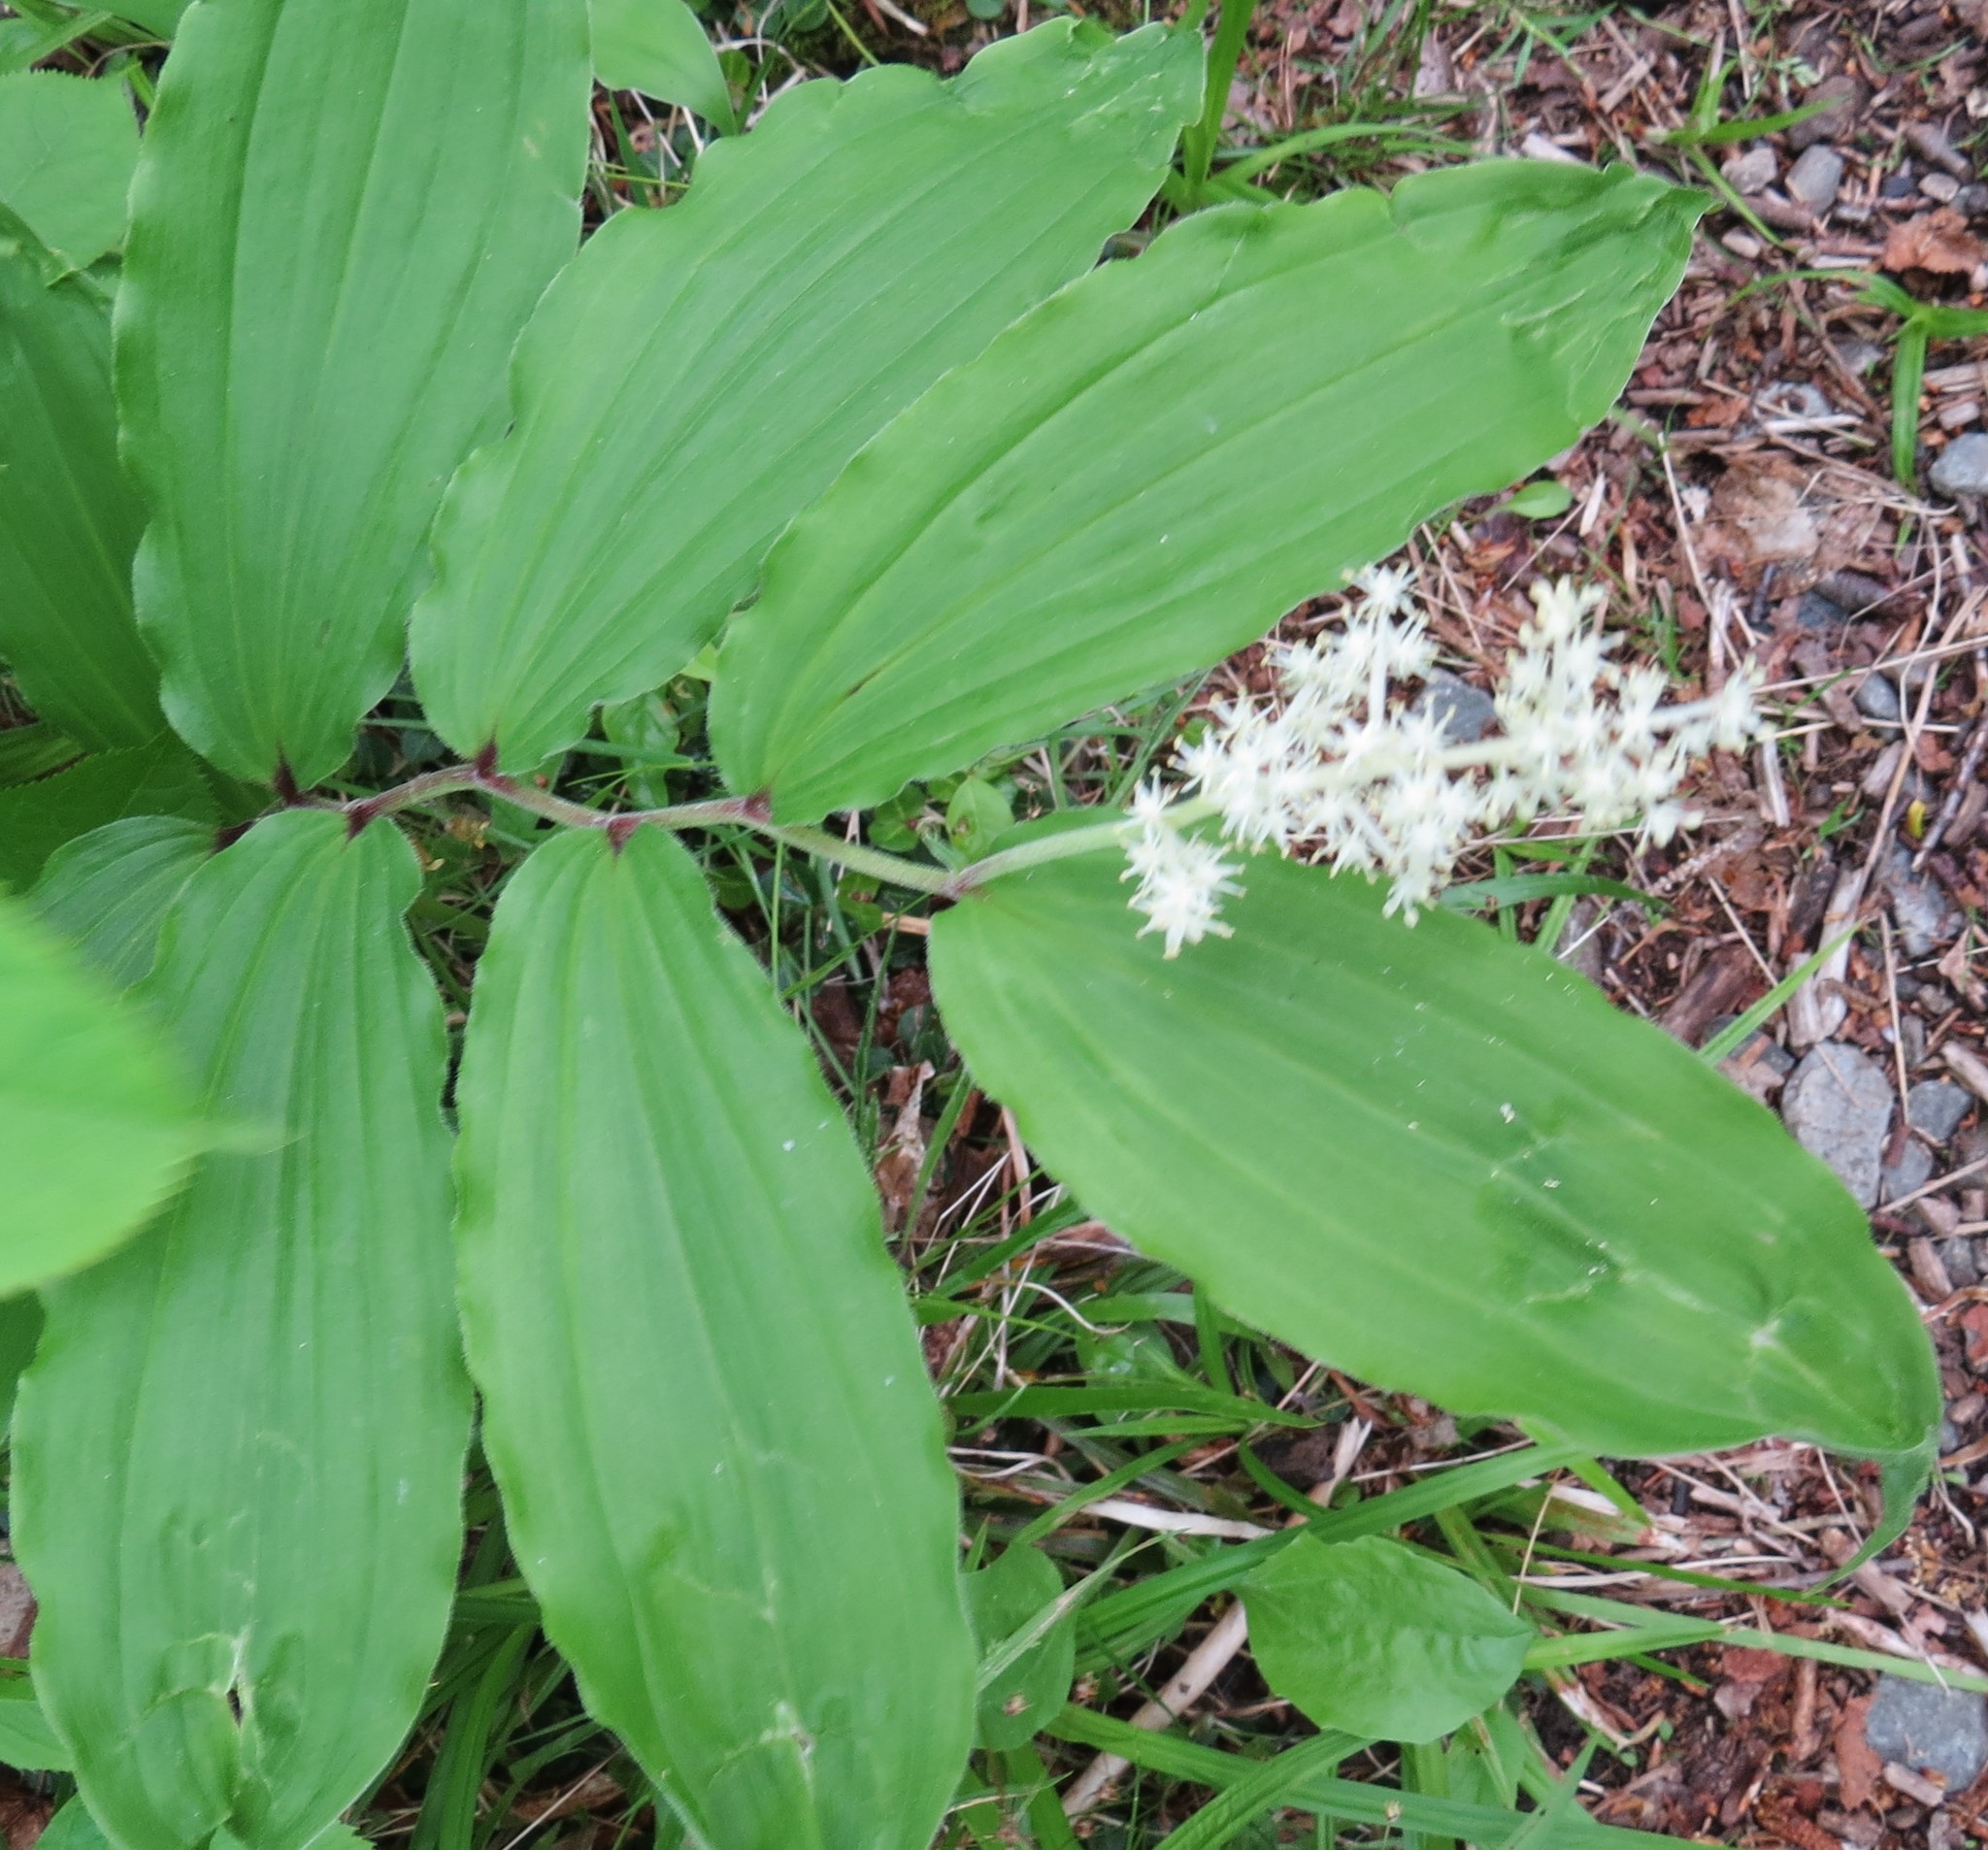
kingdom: Plantae
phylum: Tracheophyta
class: Liliopsida
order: Asparagales
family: Asparagaceae
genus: Maianthemum
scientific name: Maianthemum racemosum
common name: False spikenard
